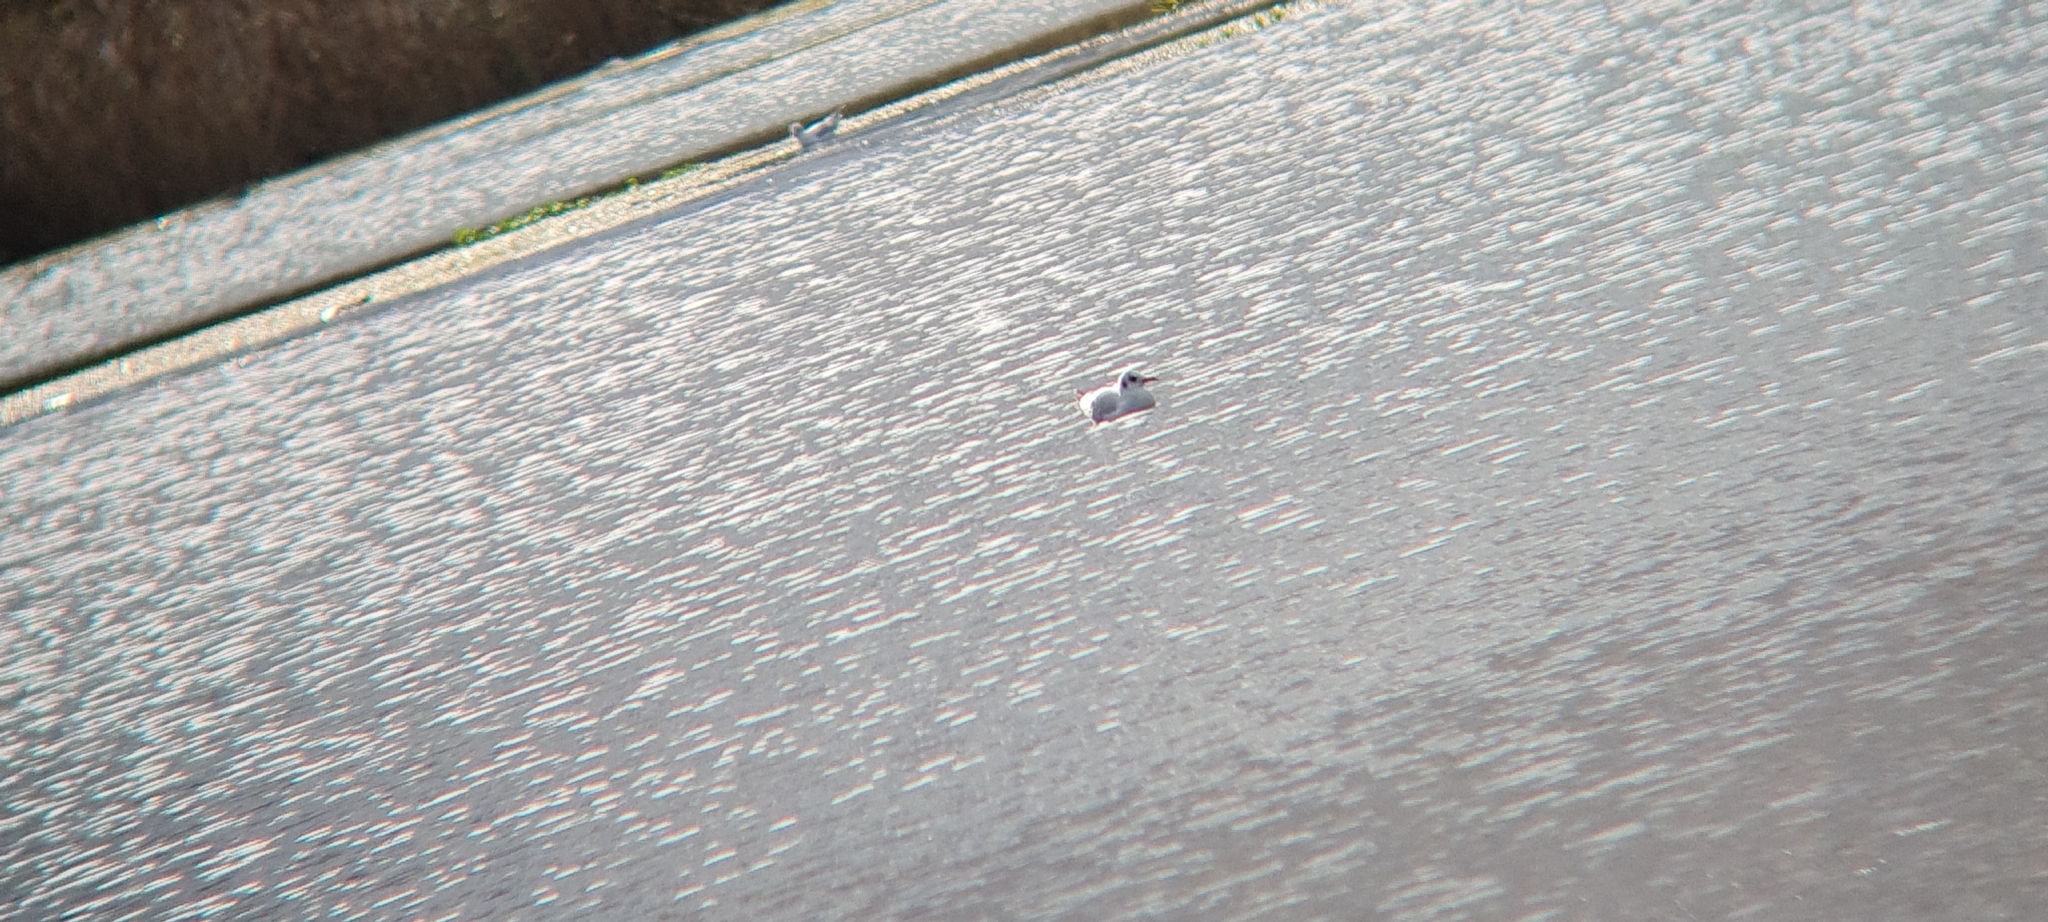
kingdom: Animalia
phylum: Chordata
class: Aves
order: Charadriiformes
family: Laridae
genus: Chroicocephalus
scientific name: Chroicocephalus ridibundus
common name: Black-headed gull
